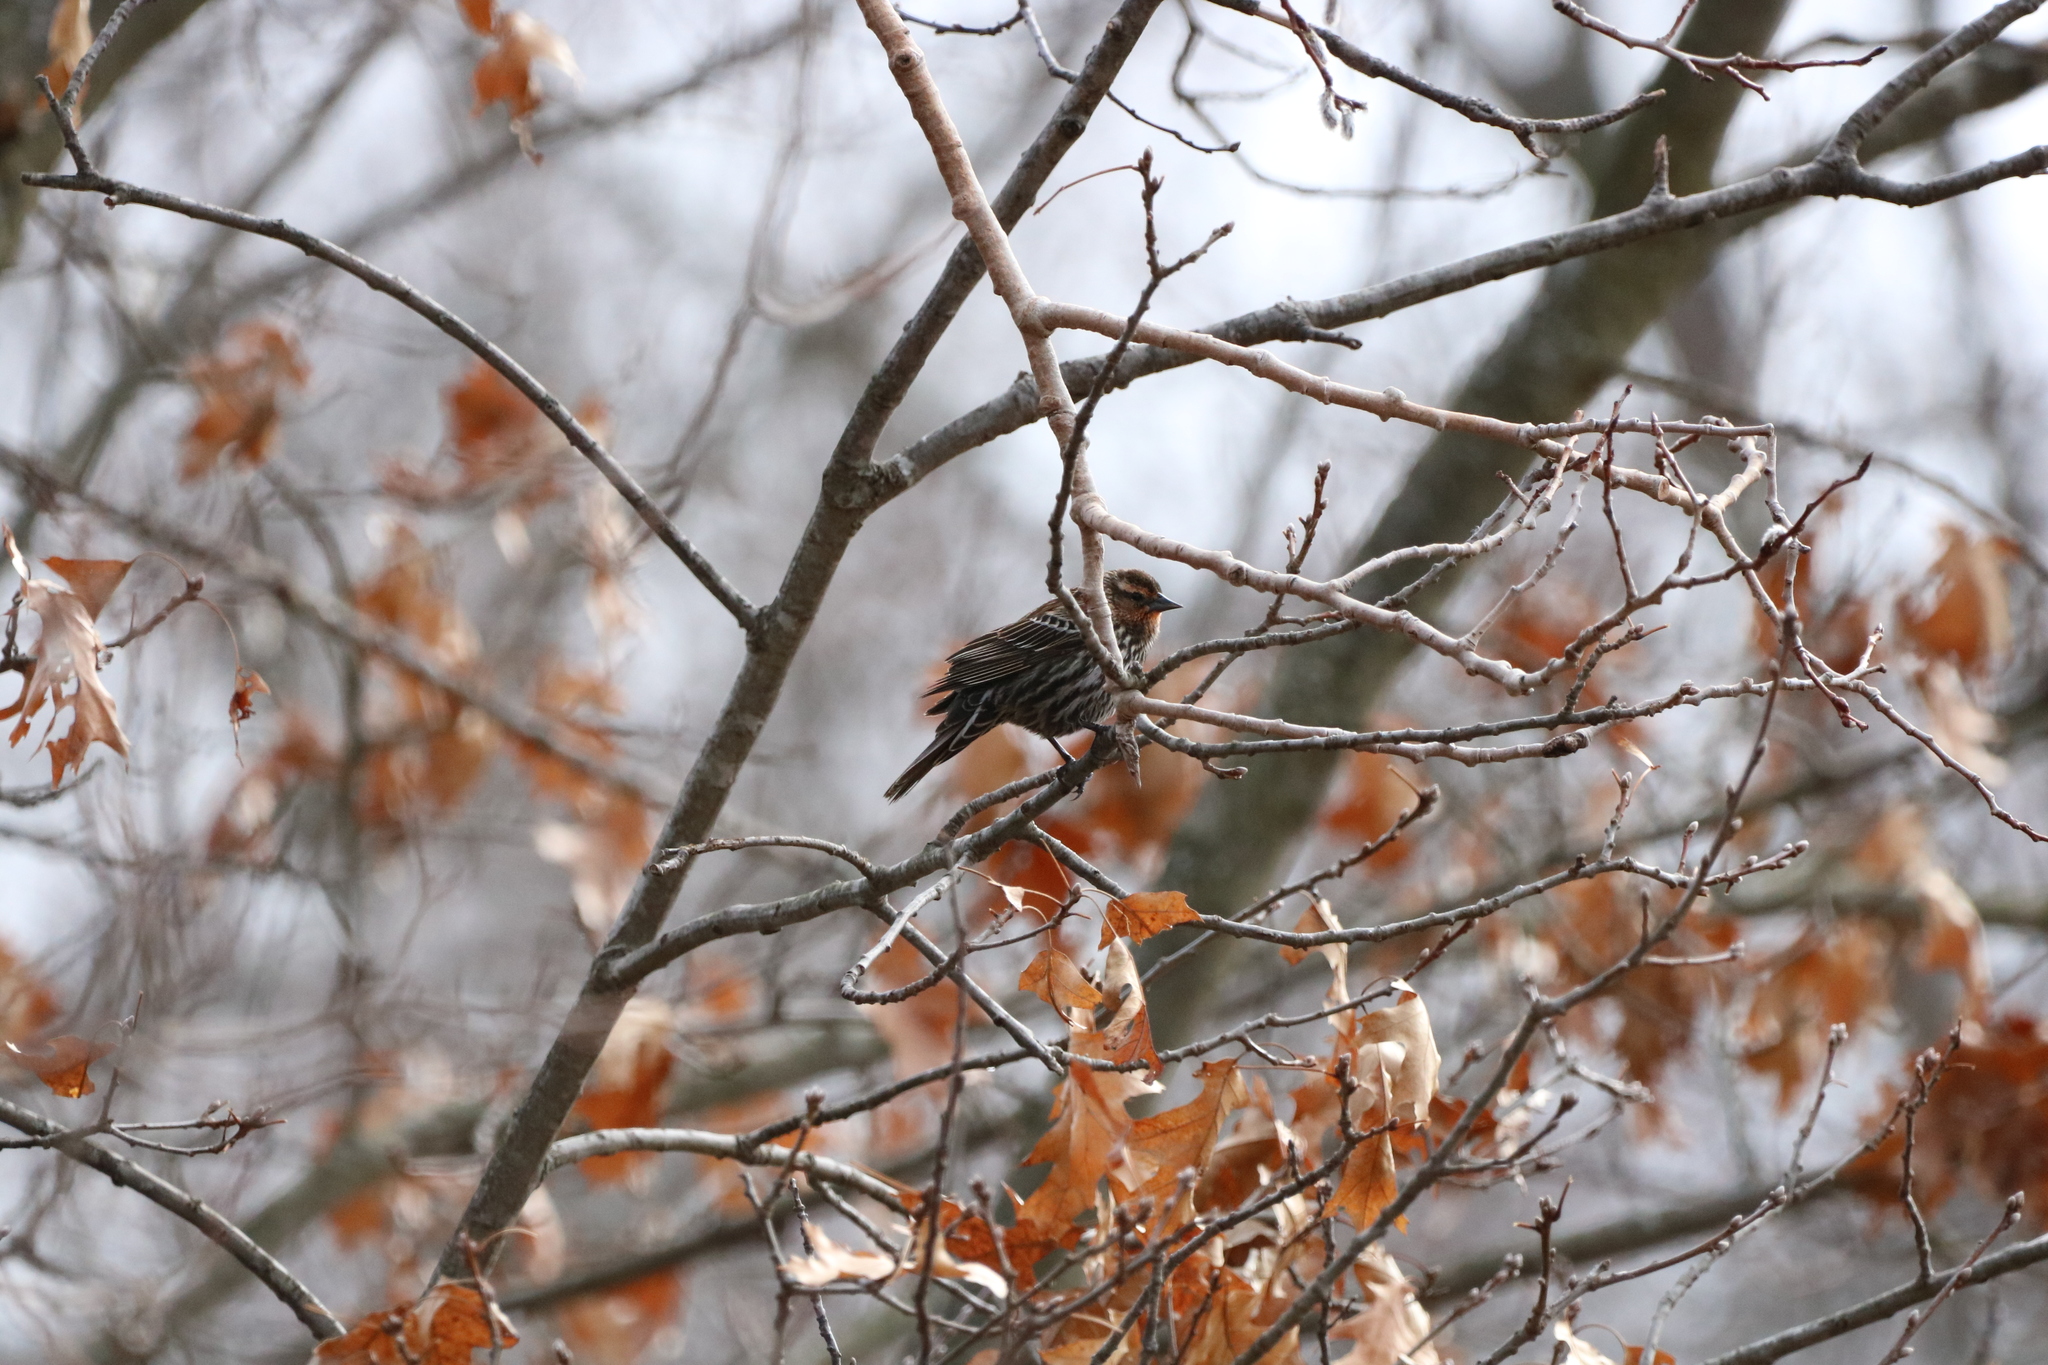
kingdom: Animalia
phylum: Chordata
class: Aves
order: Passeriformes
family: Icteridae
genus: Agelaius
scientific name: Agelaius phoeniceus
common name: Red-winged blackbird
